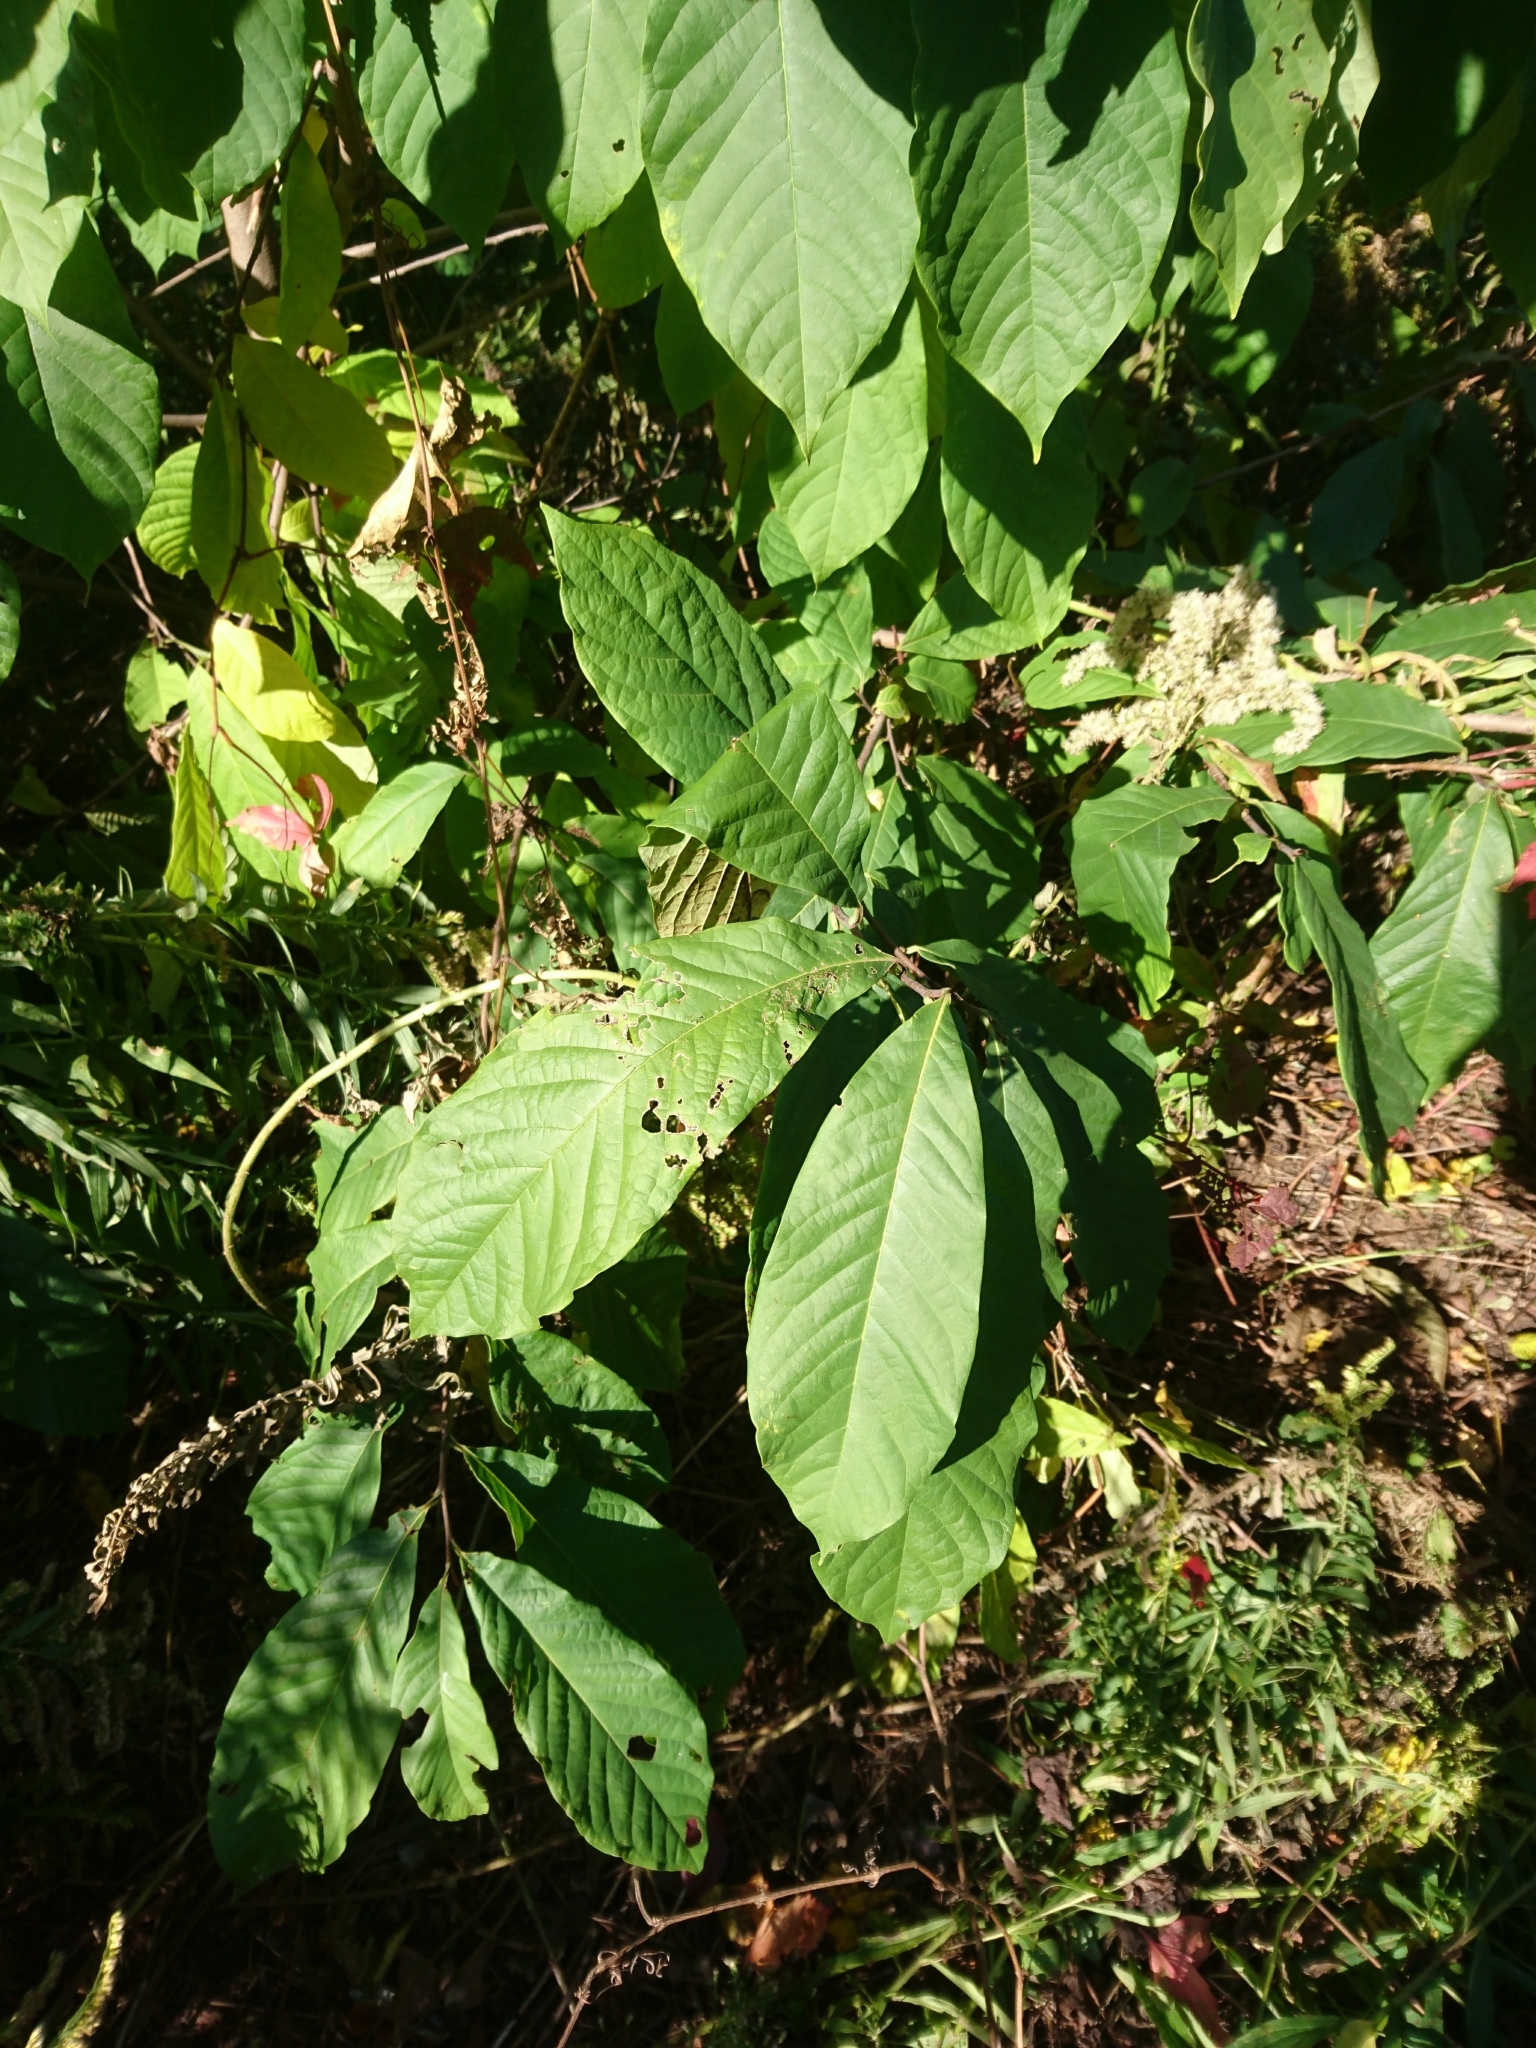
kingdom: Plantae
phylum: Tracheophyta
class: Magnoliopsida
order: Magnoliales
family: Annonaceae
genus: Asimina
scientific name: Asimina triloba
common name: Dog-banana
